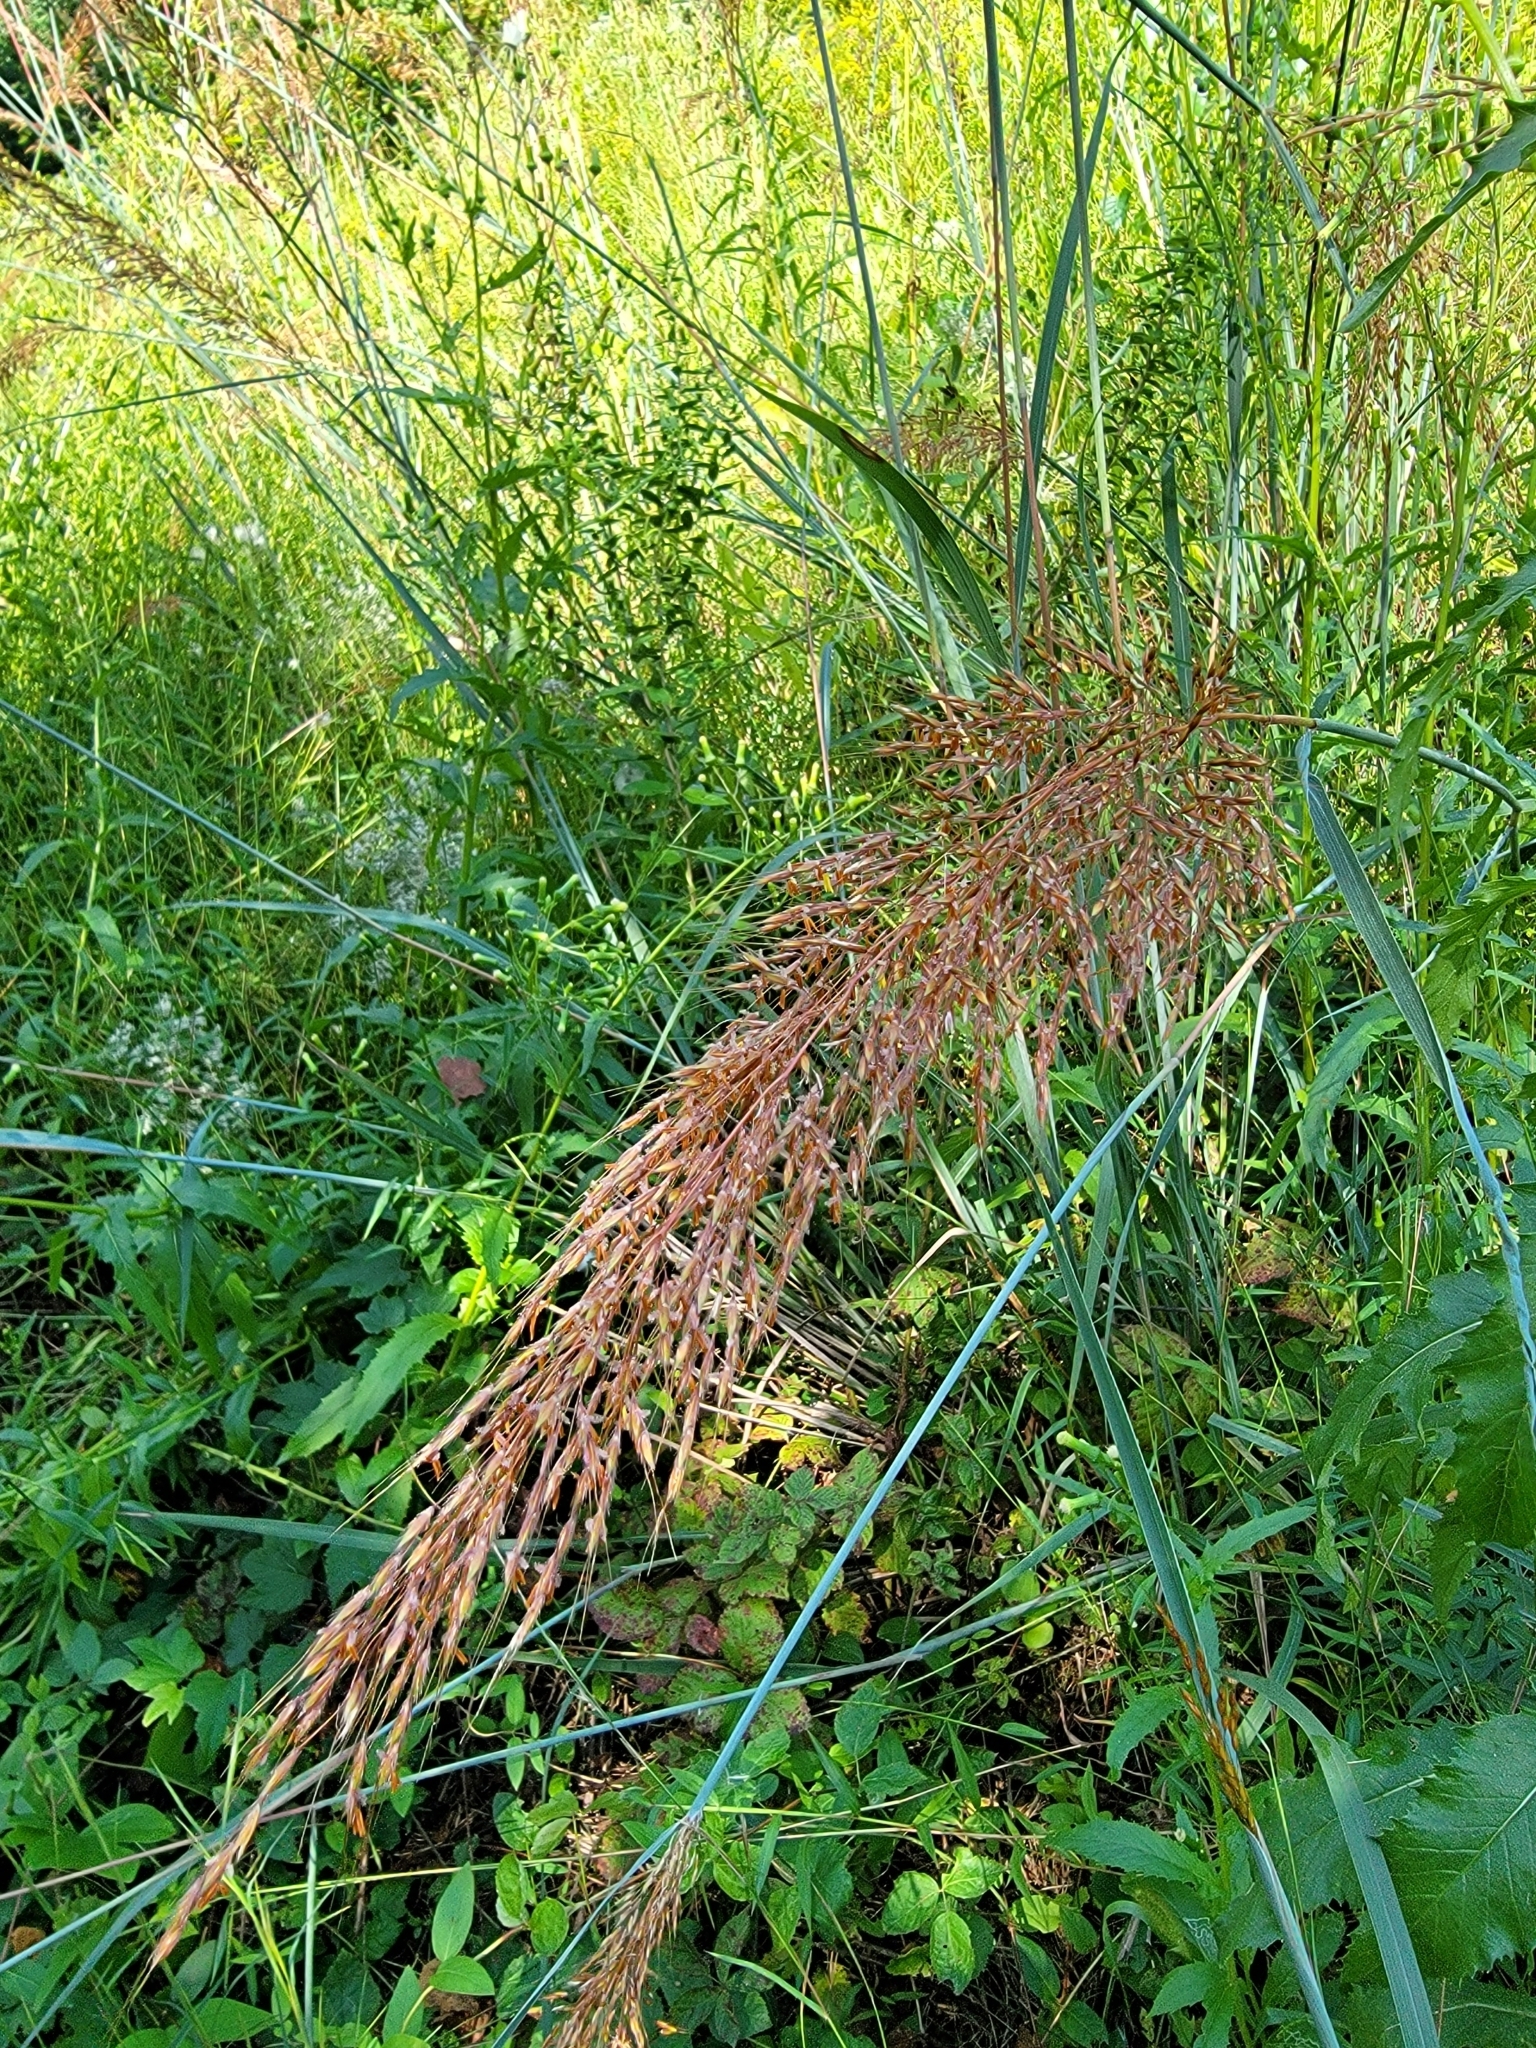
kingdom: Plantae
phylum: Tracheophyta
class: Liliopsida
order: Poales
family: Poaceae
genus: Sorghastrum
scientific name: Sorghastrum nutans
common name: Indian grass
